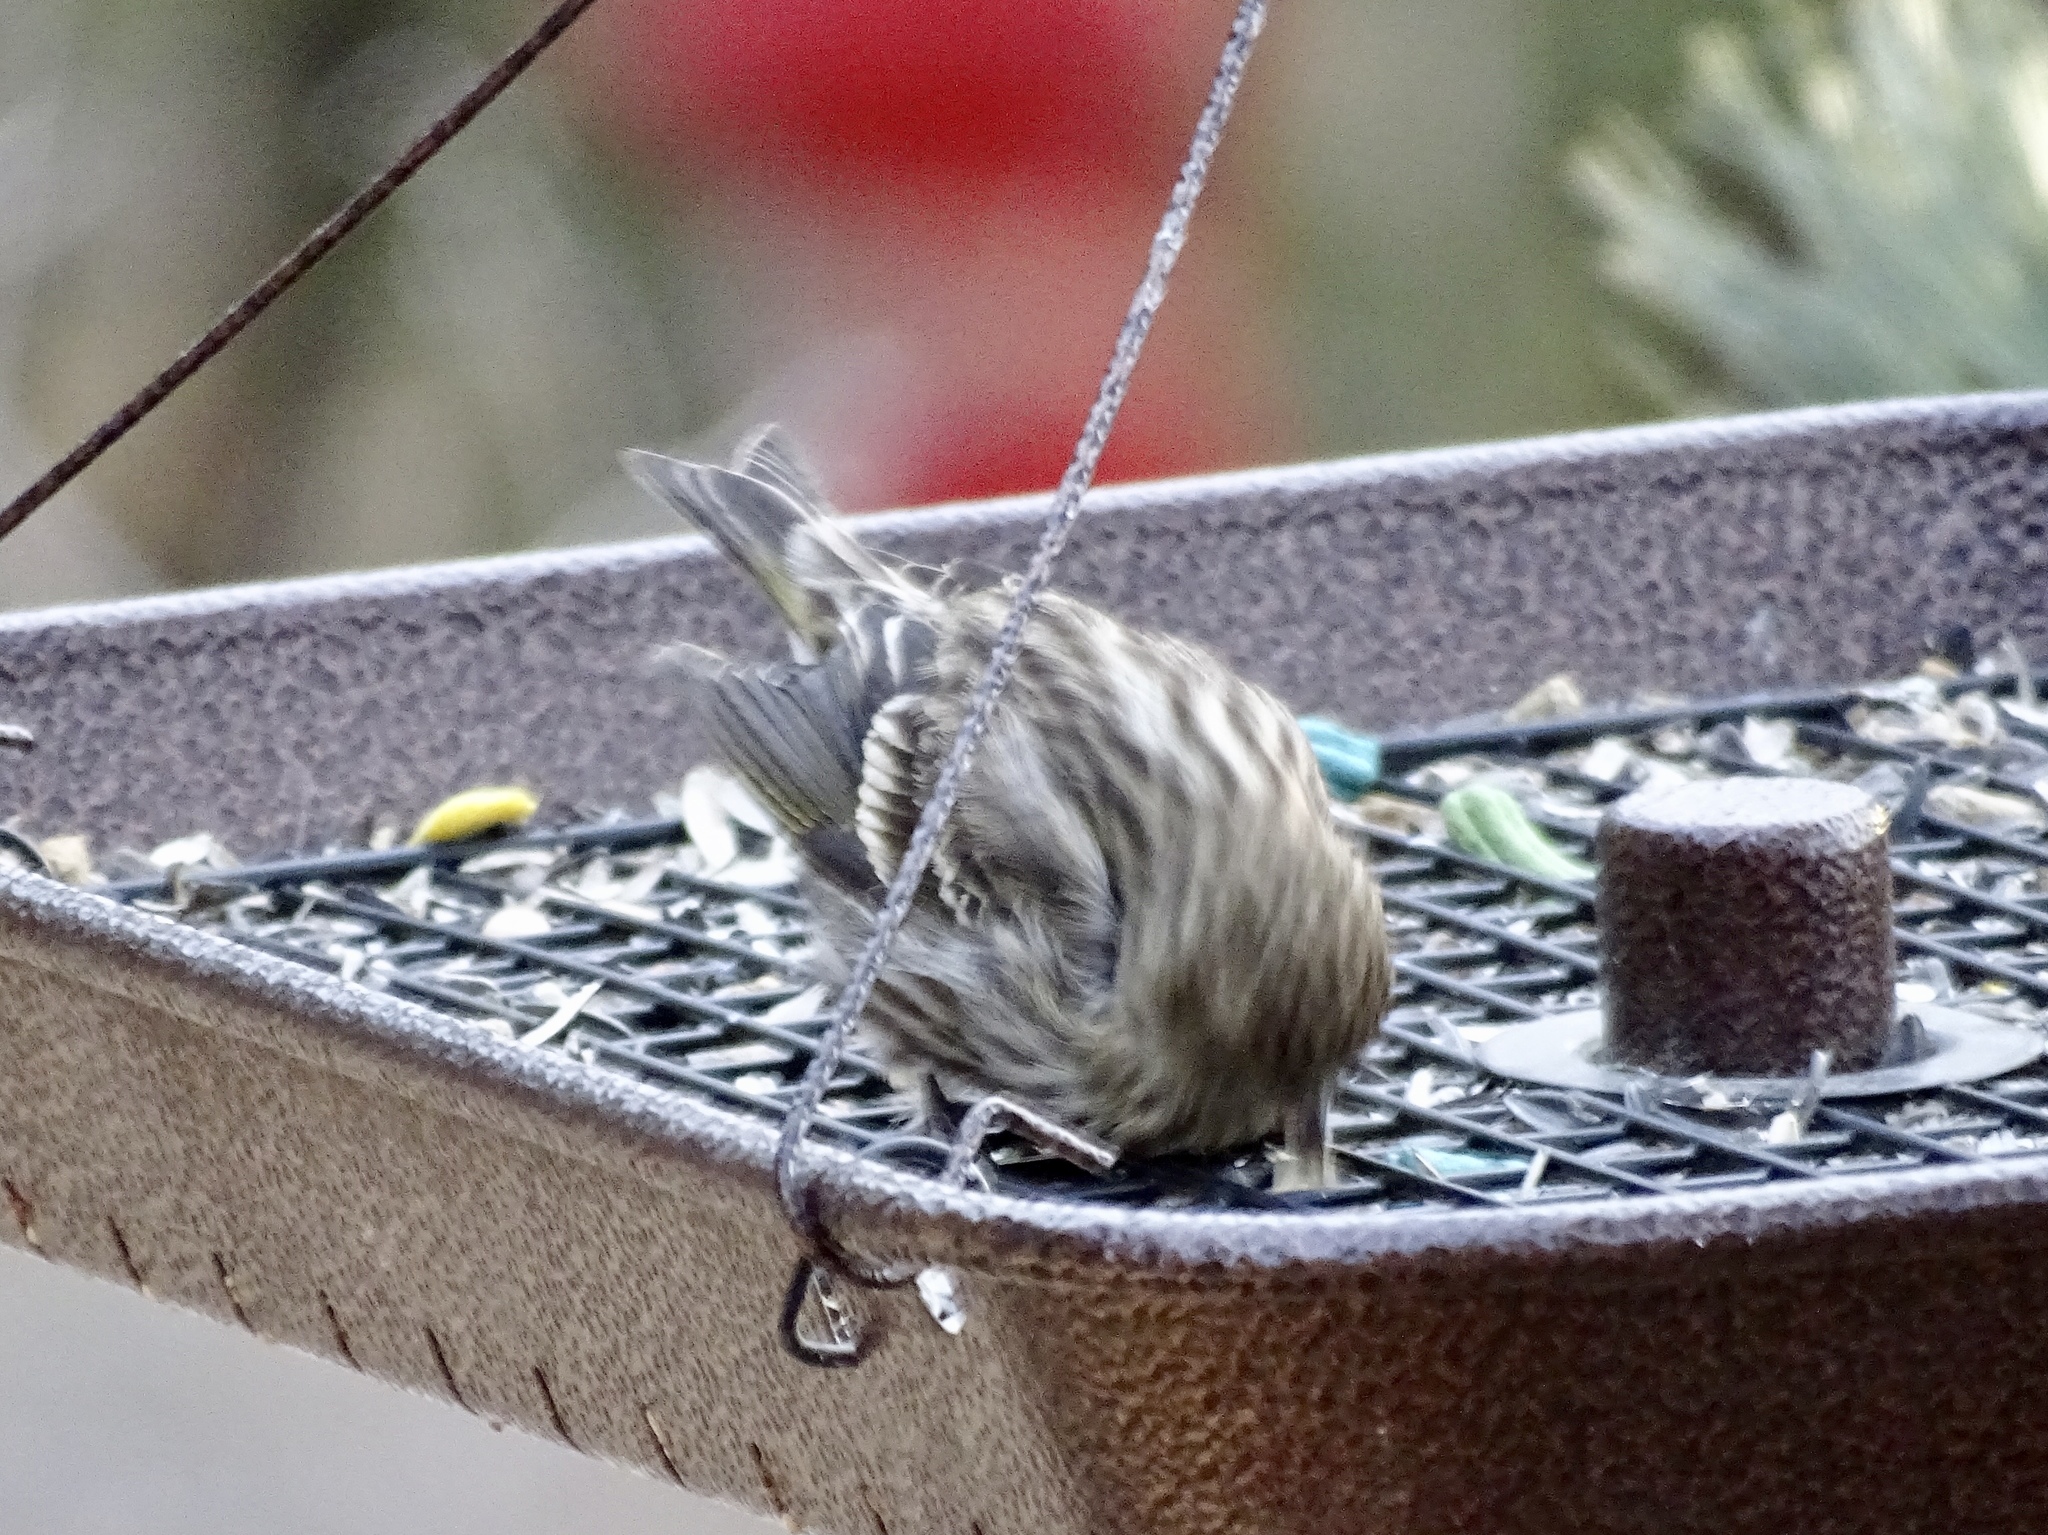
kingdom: Animalia
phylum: Chordata
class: Aves
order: Passeriformes
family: Fringillidae
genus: Spinus
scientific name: Spinus pinus
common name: Pine siskin
